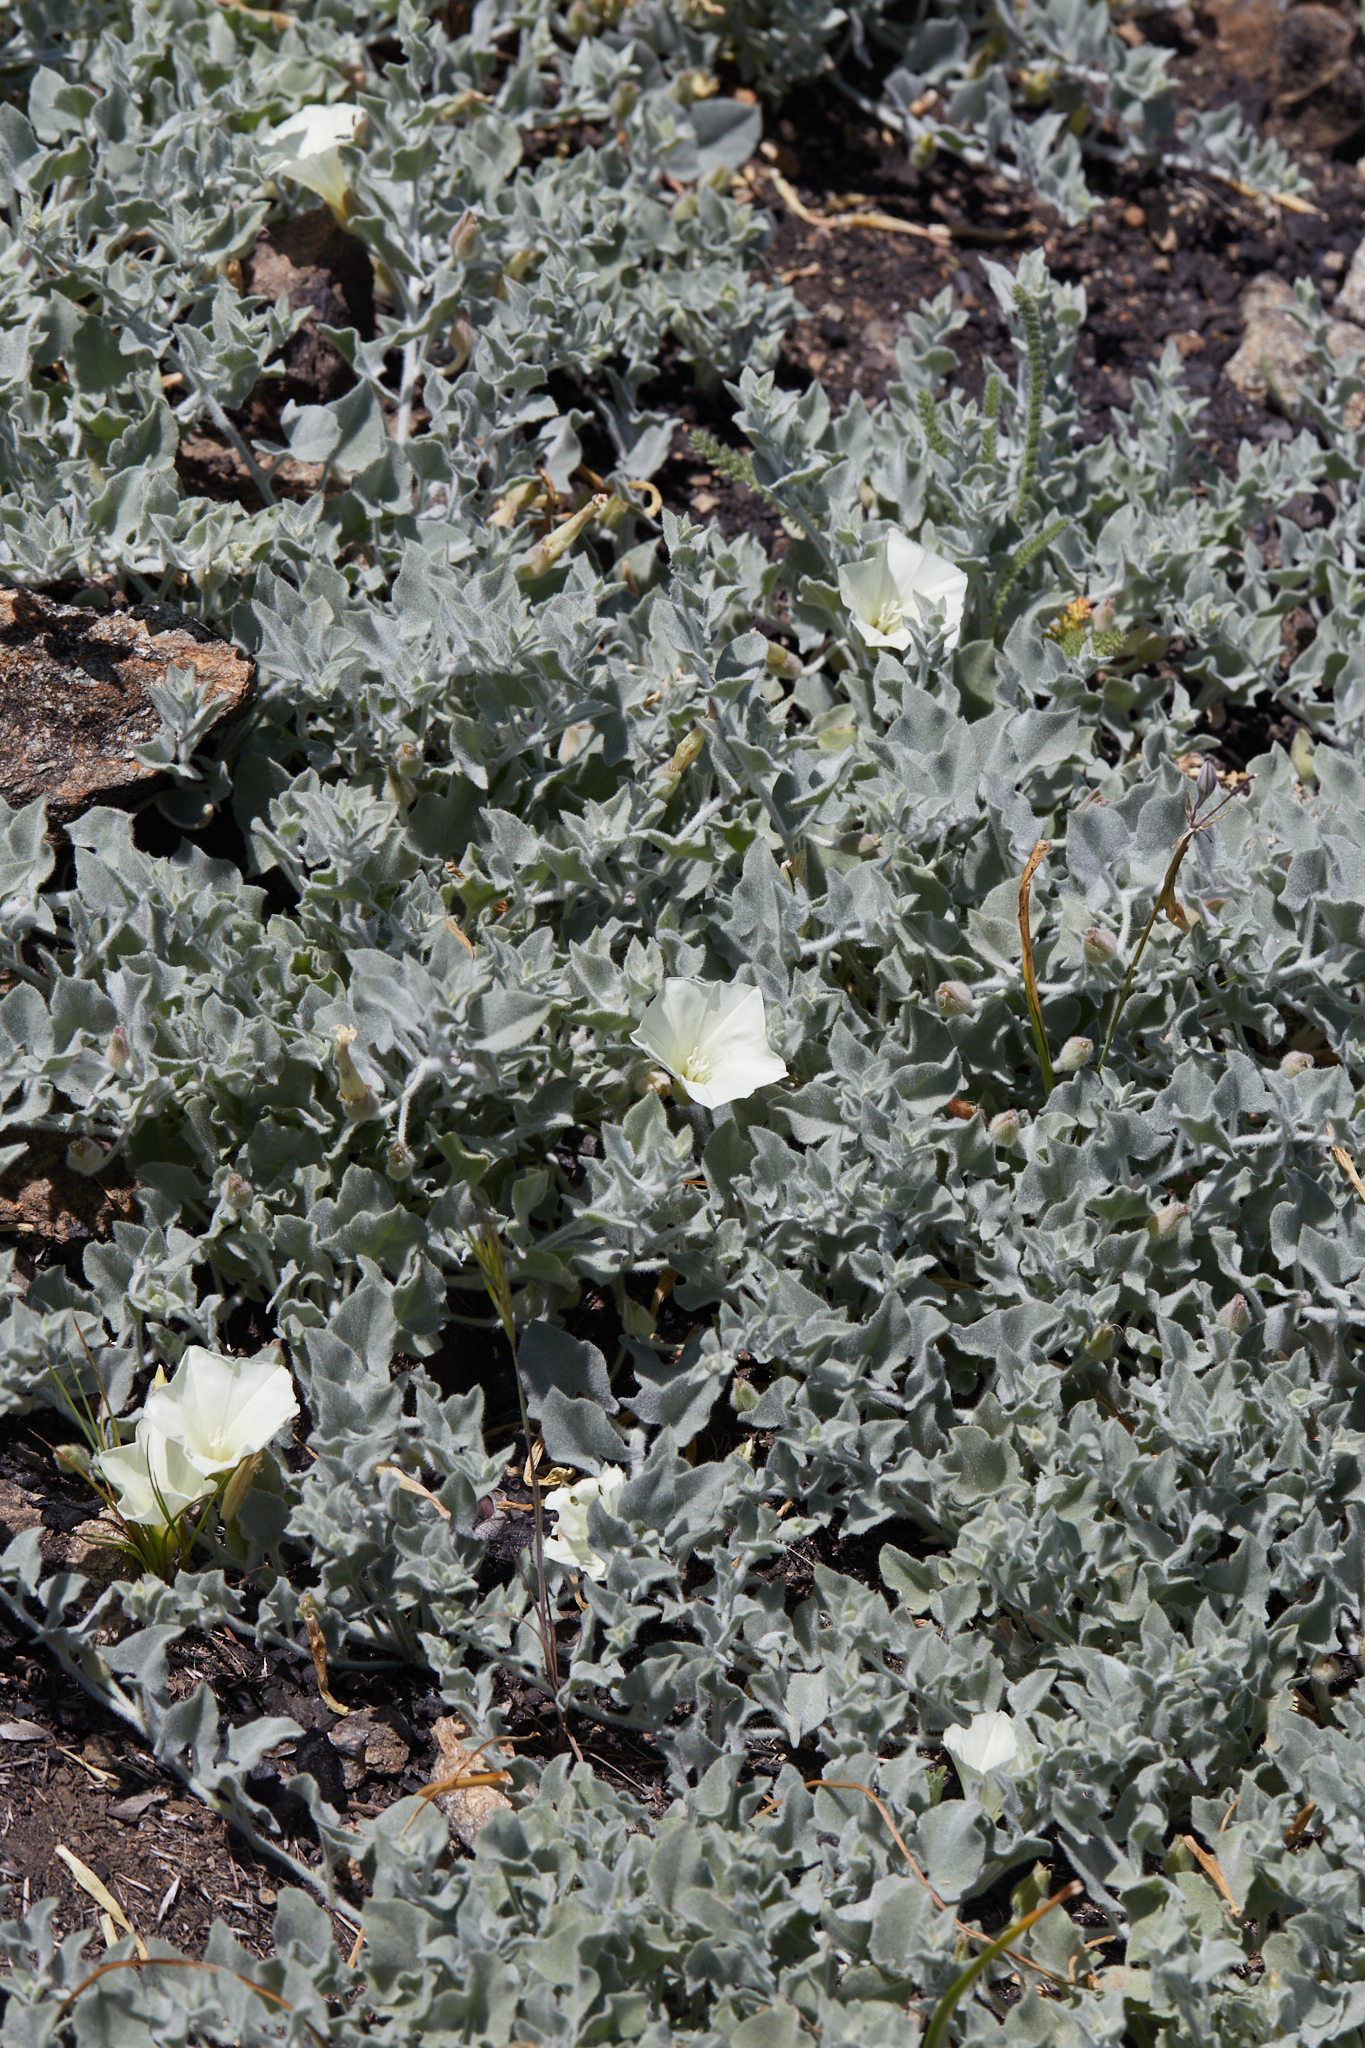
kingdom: Plantae
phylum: Tracheophyta
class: Magnoliopsida
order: Solanales
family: Convolvulaceae
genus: Calystegia
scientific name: Calystegia malacophylla
